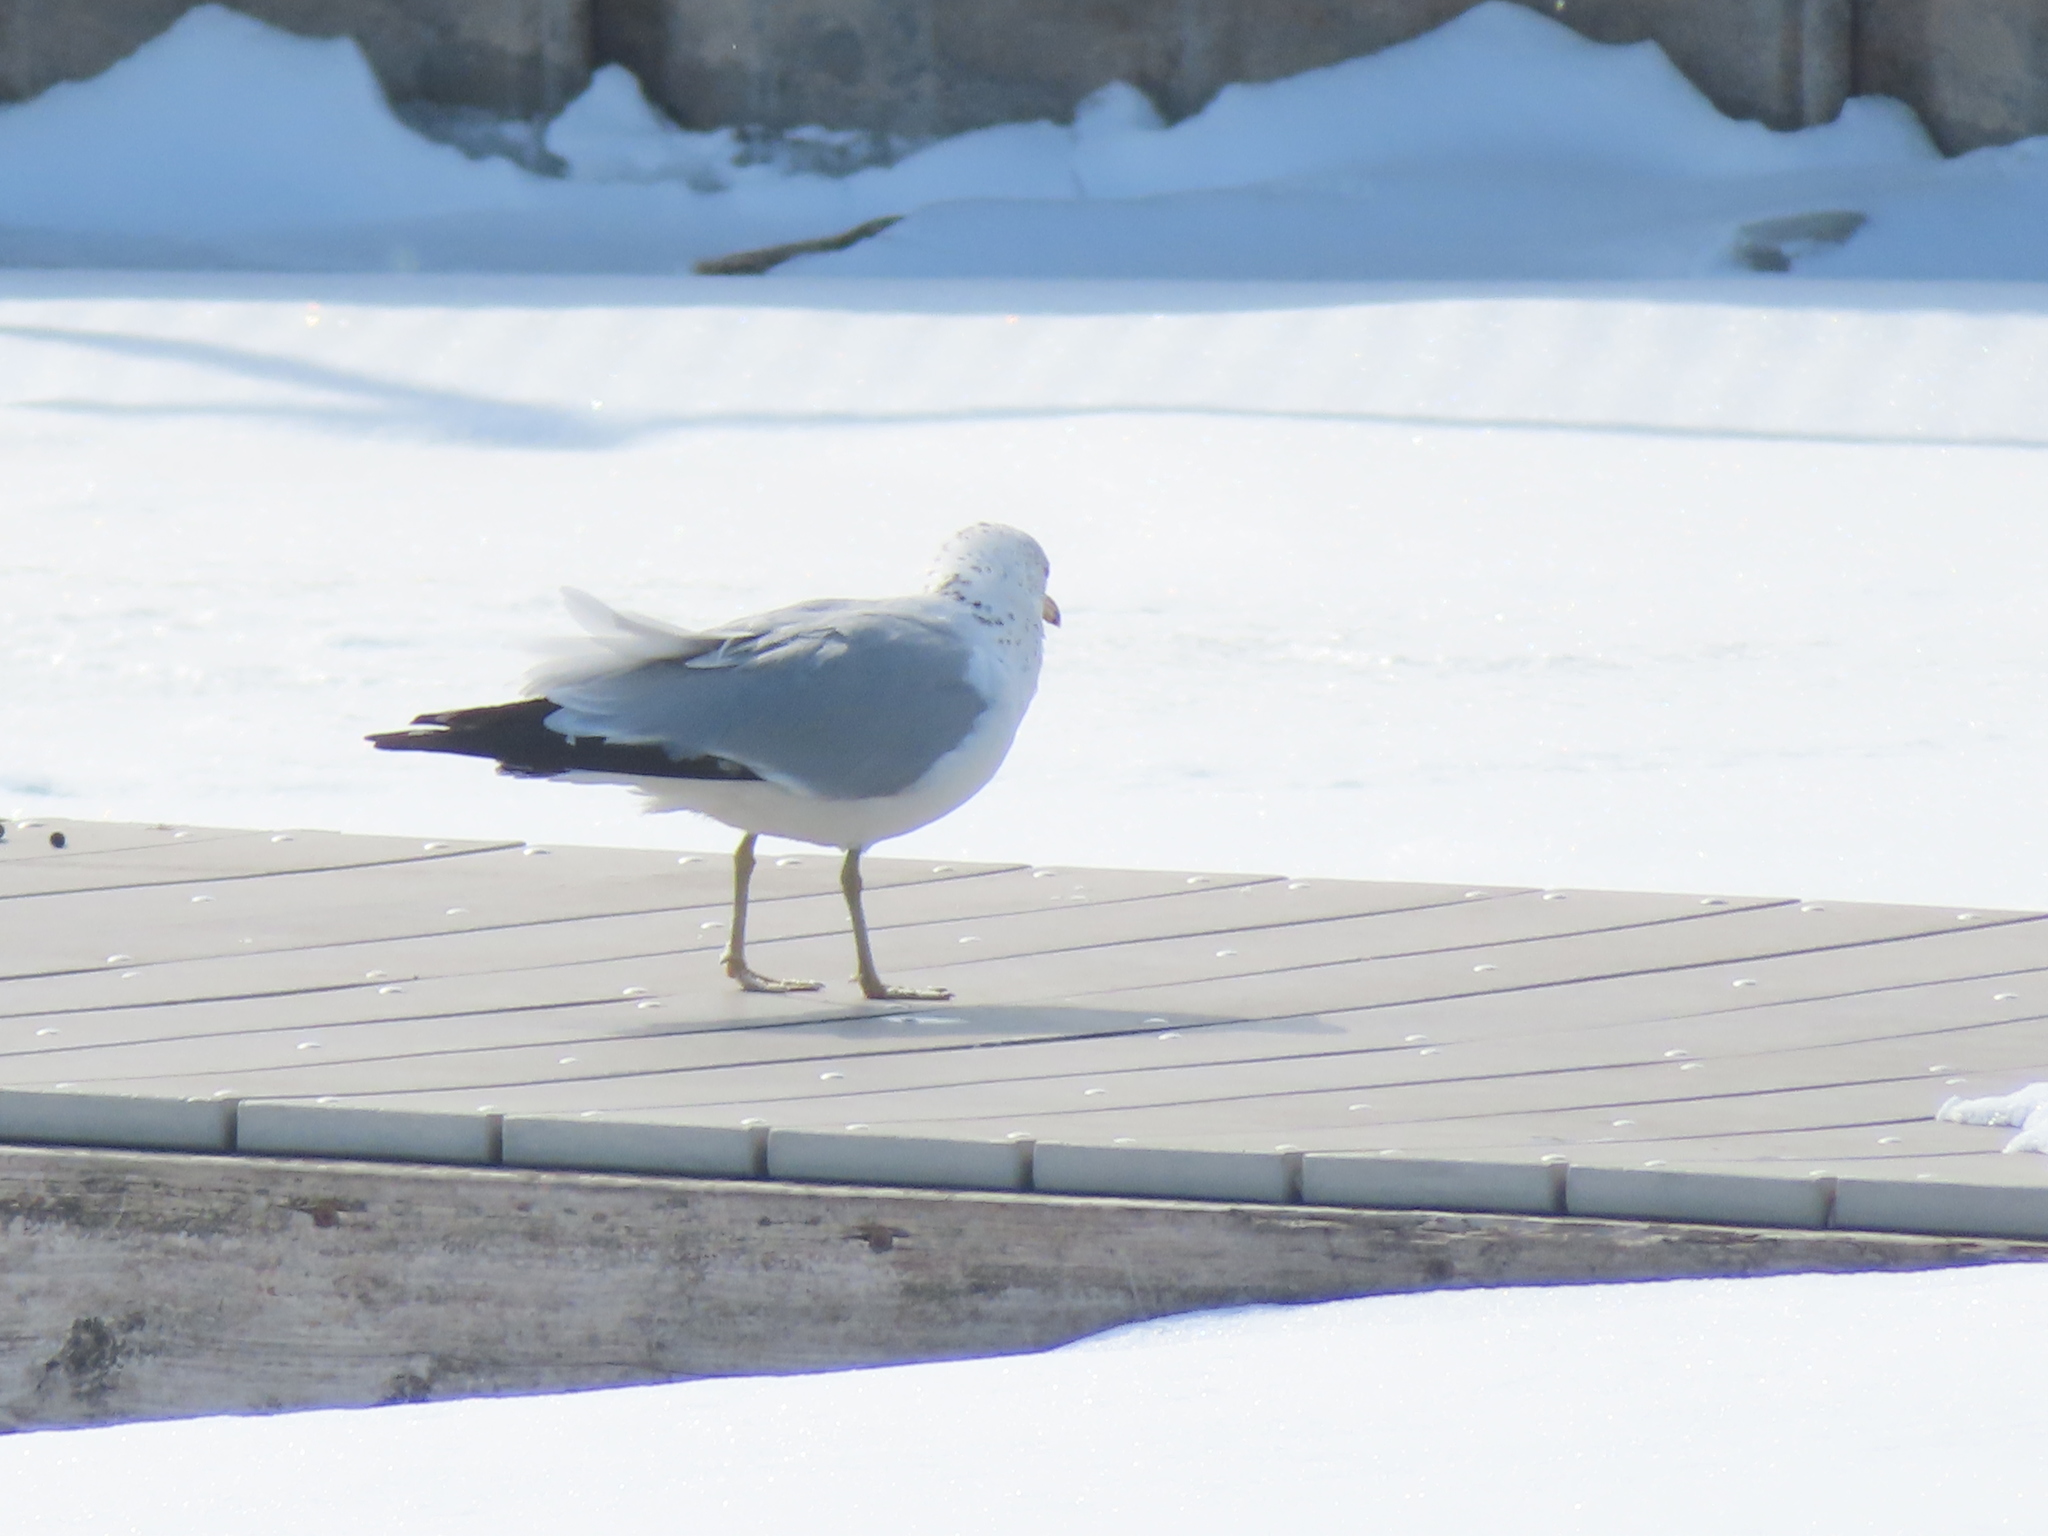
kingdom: Animalia
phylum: Chordata
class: Aves
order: Charadriiformes
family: Laridae
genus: Larus
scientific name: Larus delawarensis
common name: Ring-billed gull
